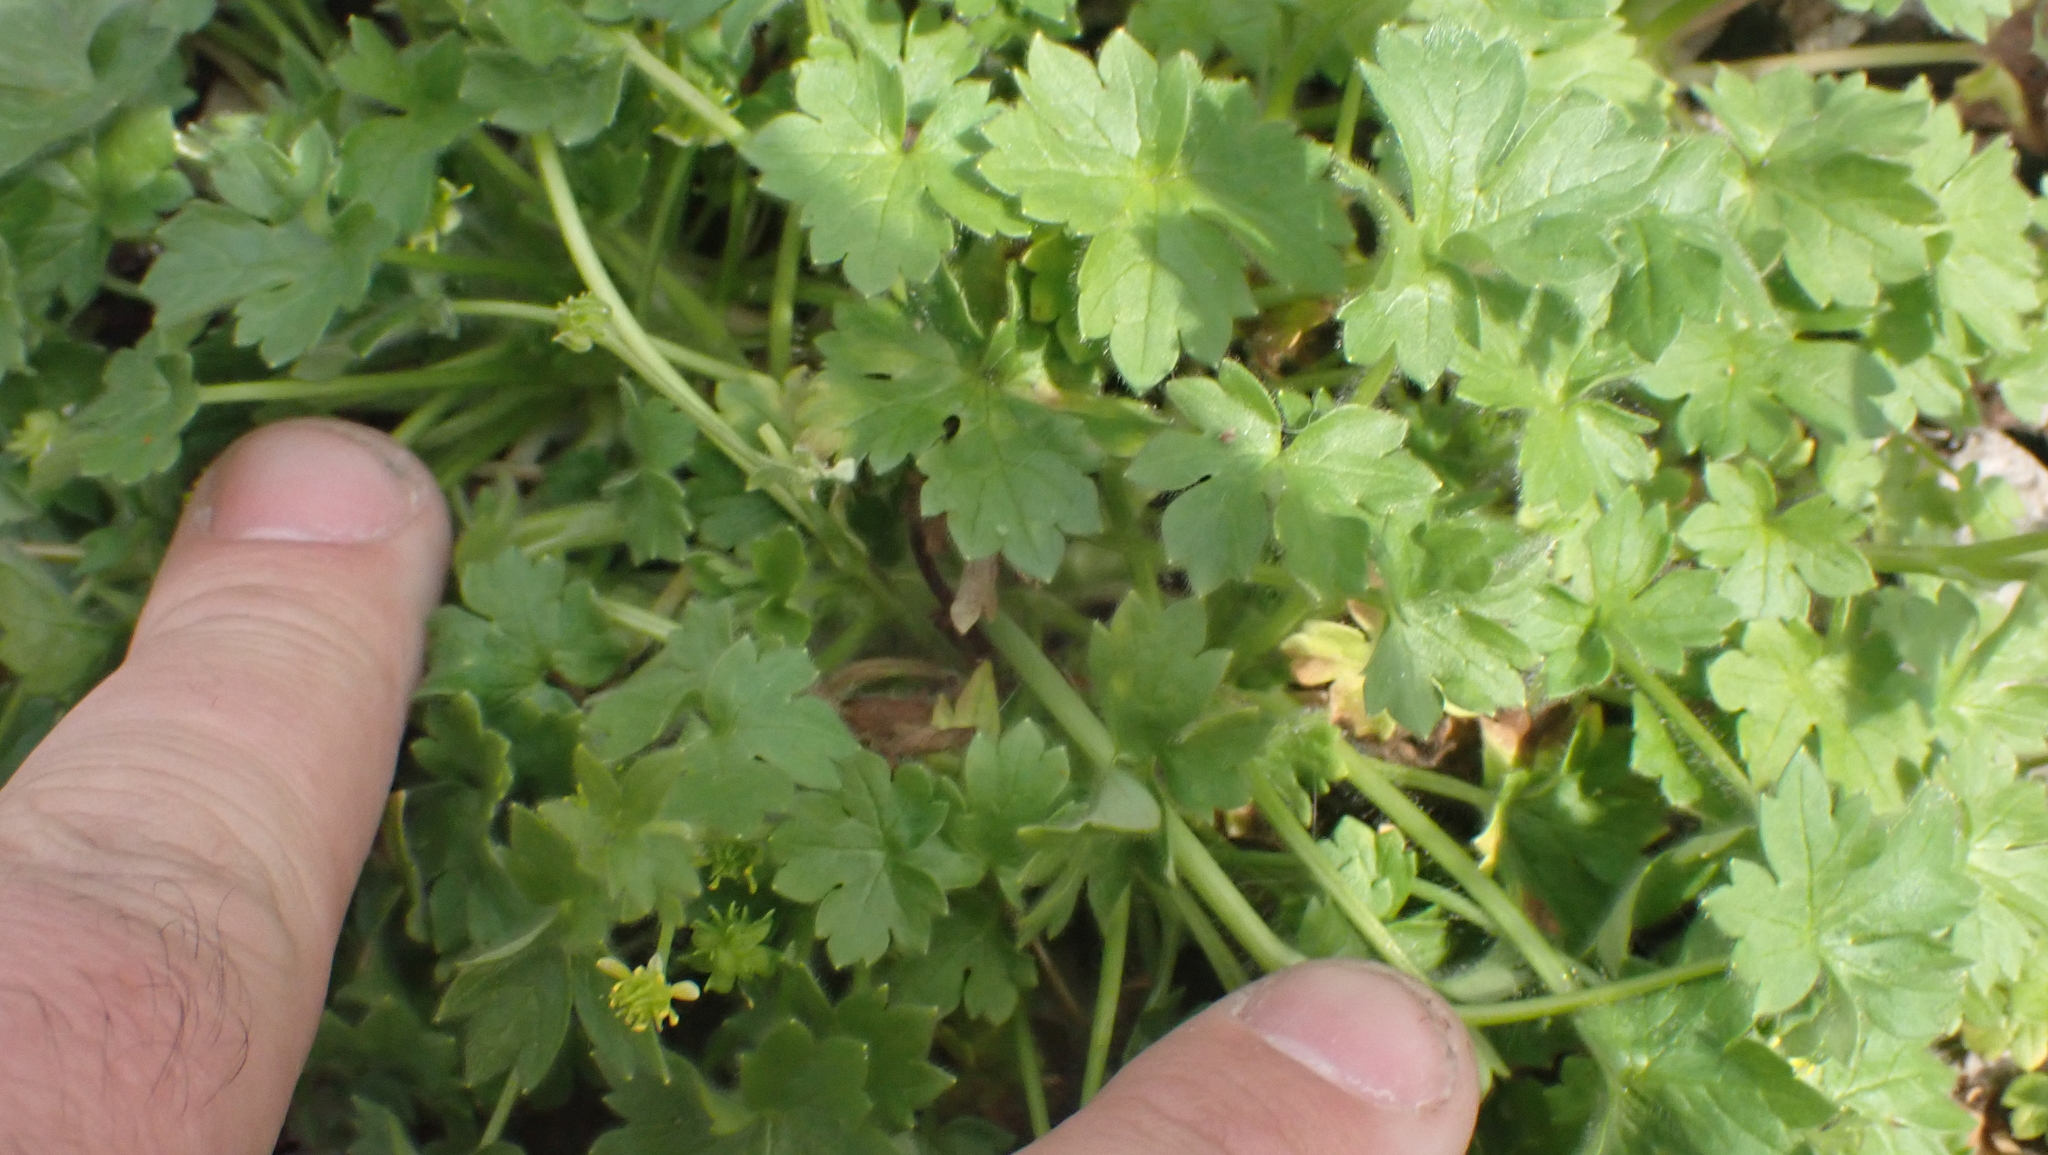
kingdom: Plantae
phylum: Tracheophyta
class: Magnoliopsida
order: Ranunculales
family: Ranunculaceae
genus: Ranunculus
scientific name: Ranunculus parviflorus
